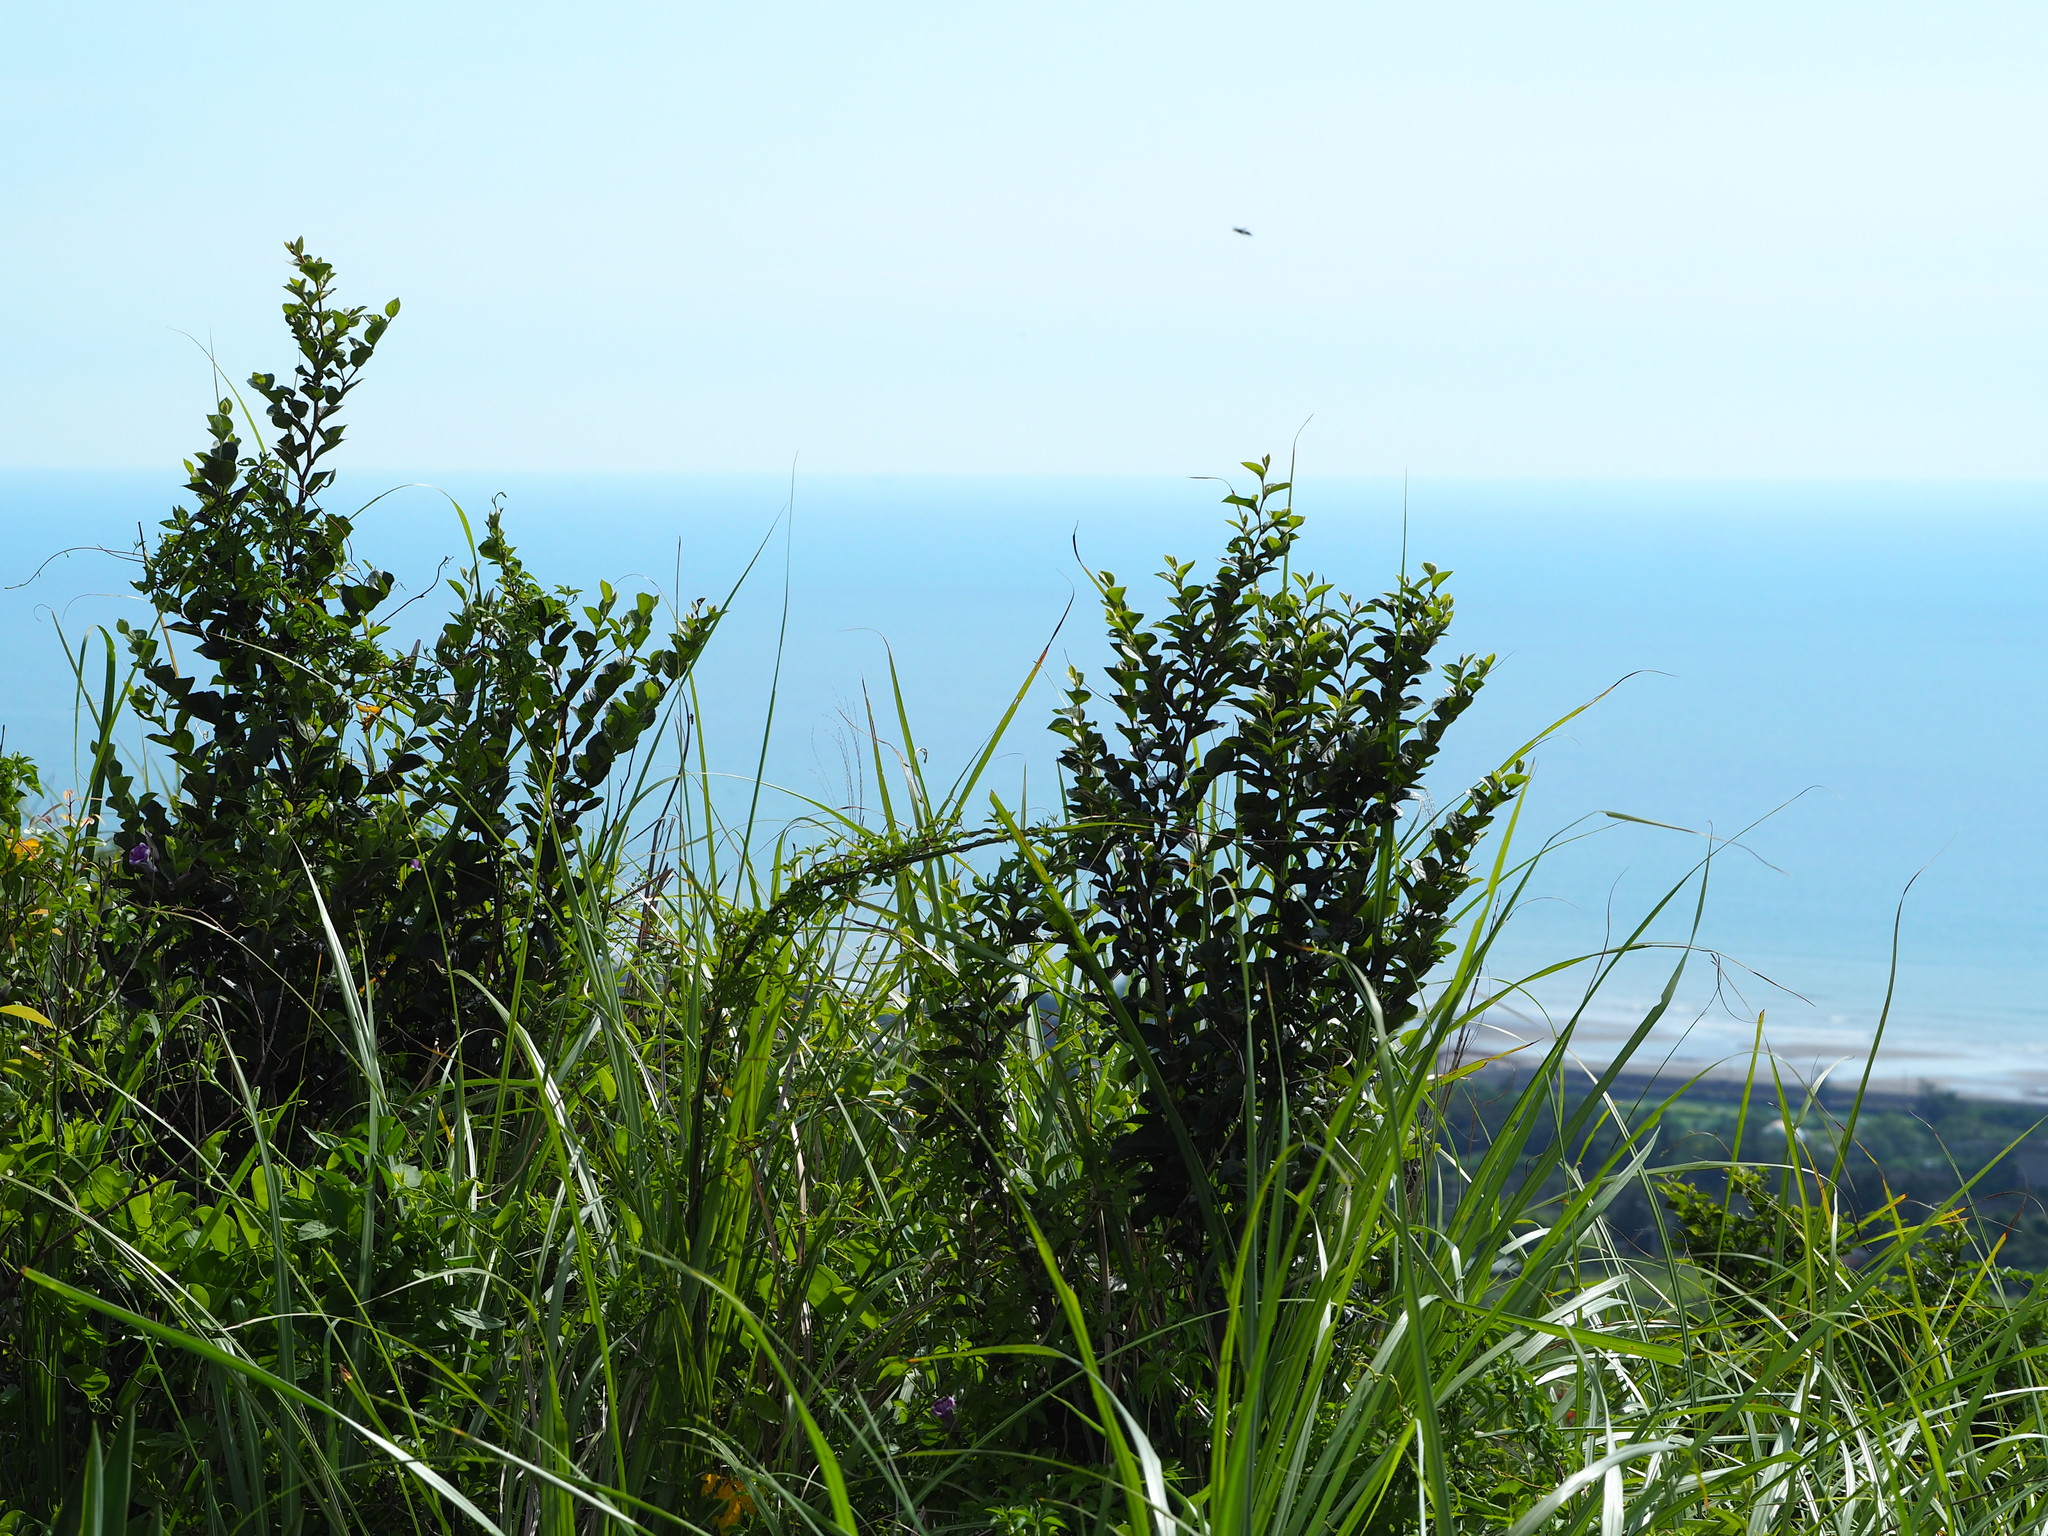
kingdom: Plantae
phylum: Tracheophyta
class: Magnoliopsida
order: Ericales
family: Styracaceae
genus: Styrax
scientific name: Styrax faberi
